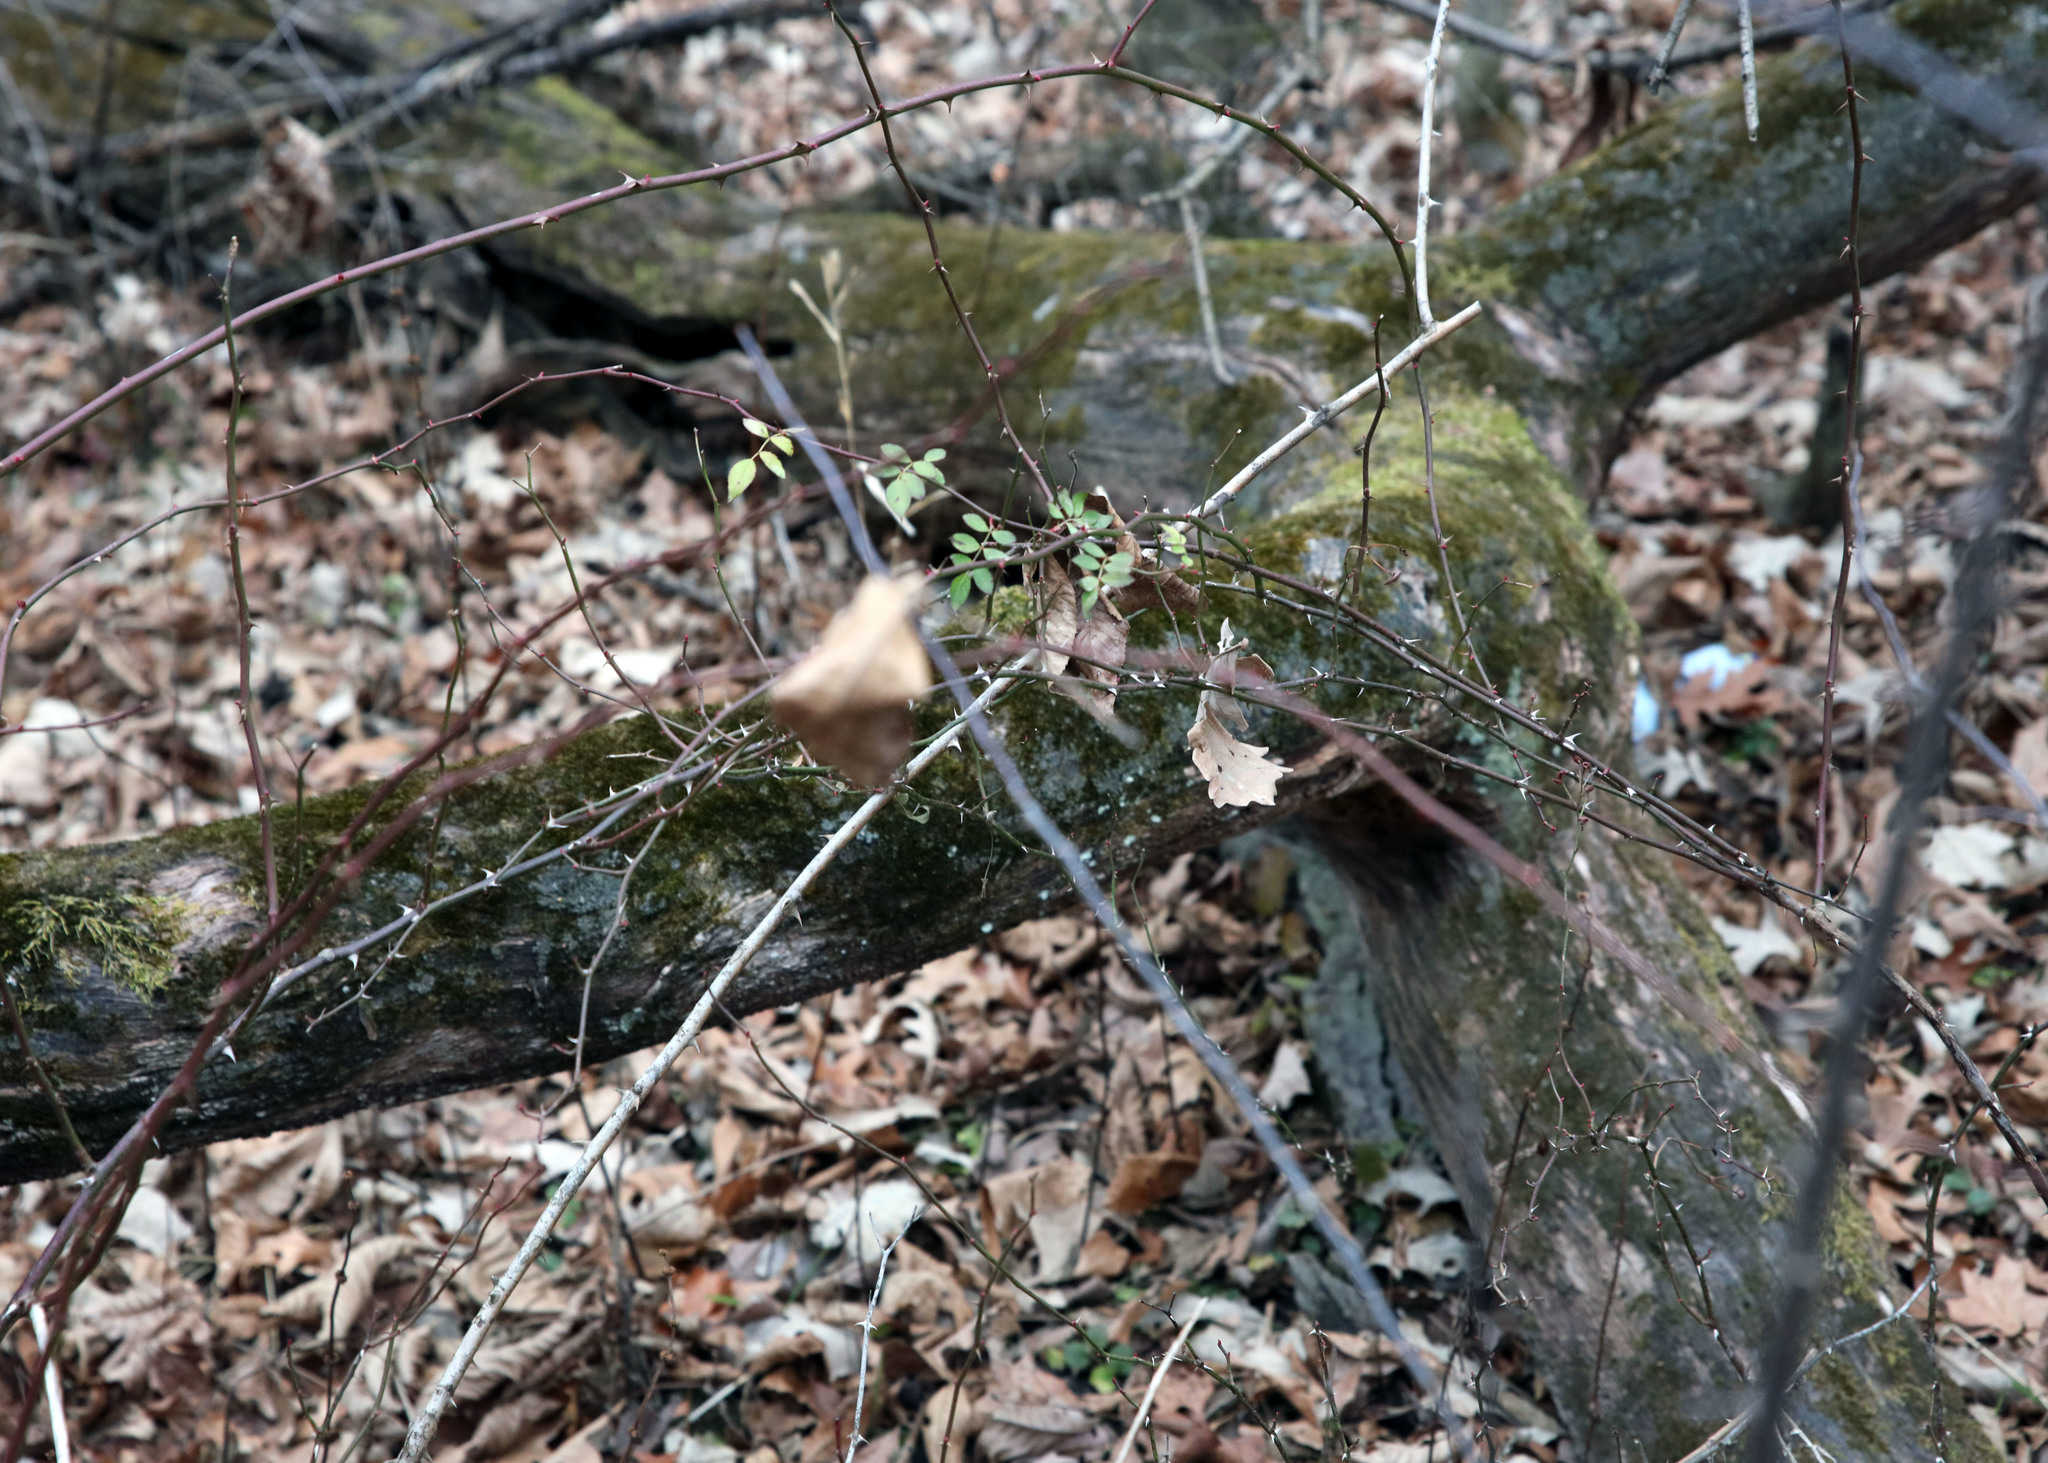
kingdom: Plantae
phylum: Tracheophyta
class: Magnoliopsida
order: Rosales
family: Rosaceae
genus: Rosa
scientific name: Rosa multiflora
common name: Multiflora rose
